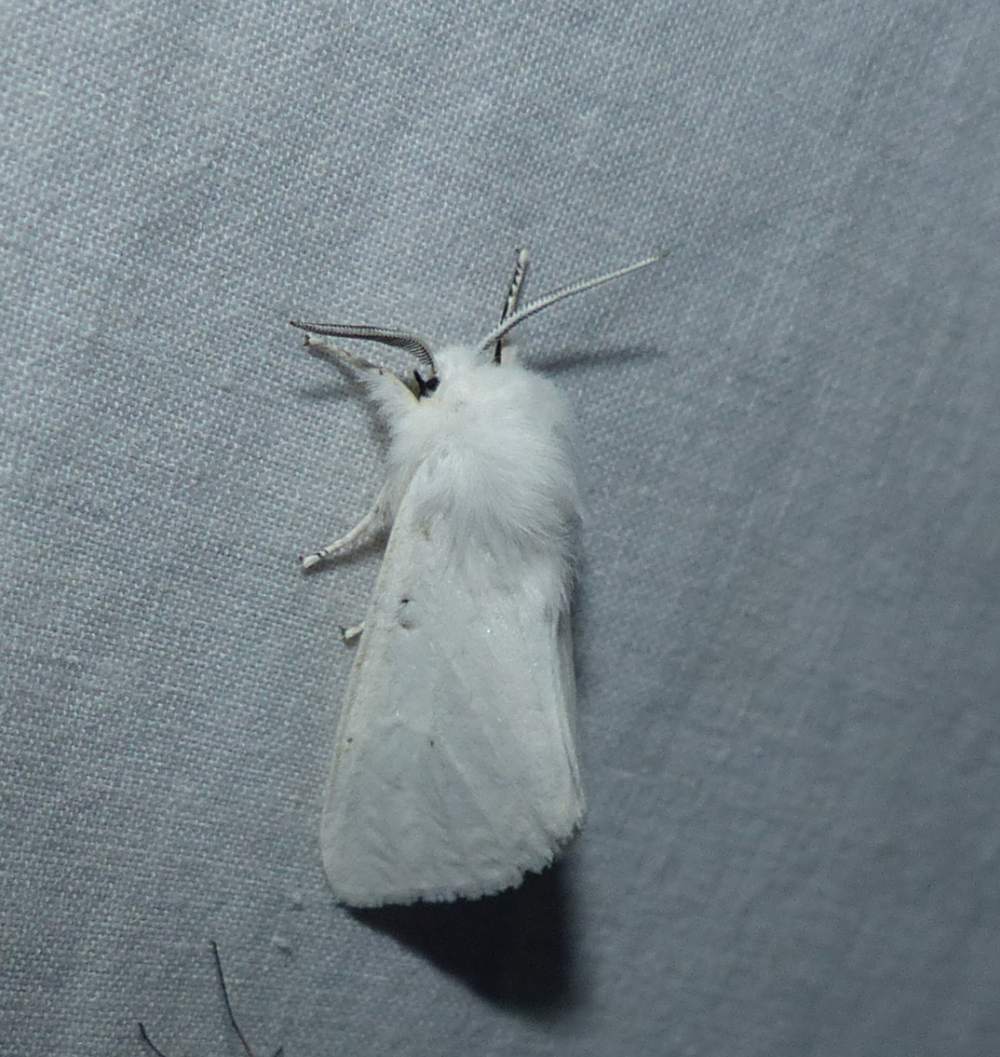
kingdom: Animalia
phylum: Arthropoda
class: Insecta
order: Lepidoptera
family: Erebidae
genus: Spilosoma
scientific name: Spilosoma virginica
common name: Virginia tiger moth
